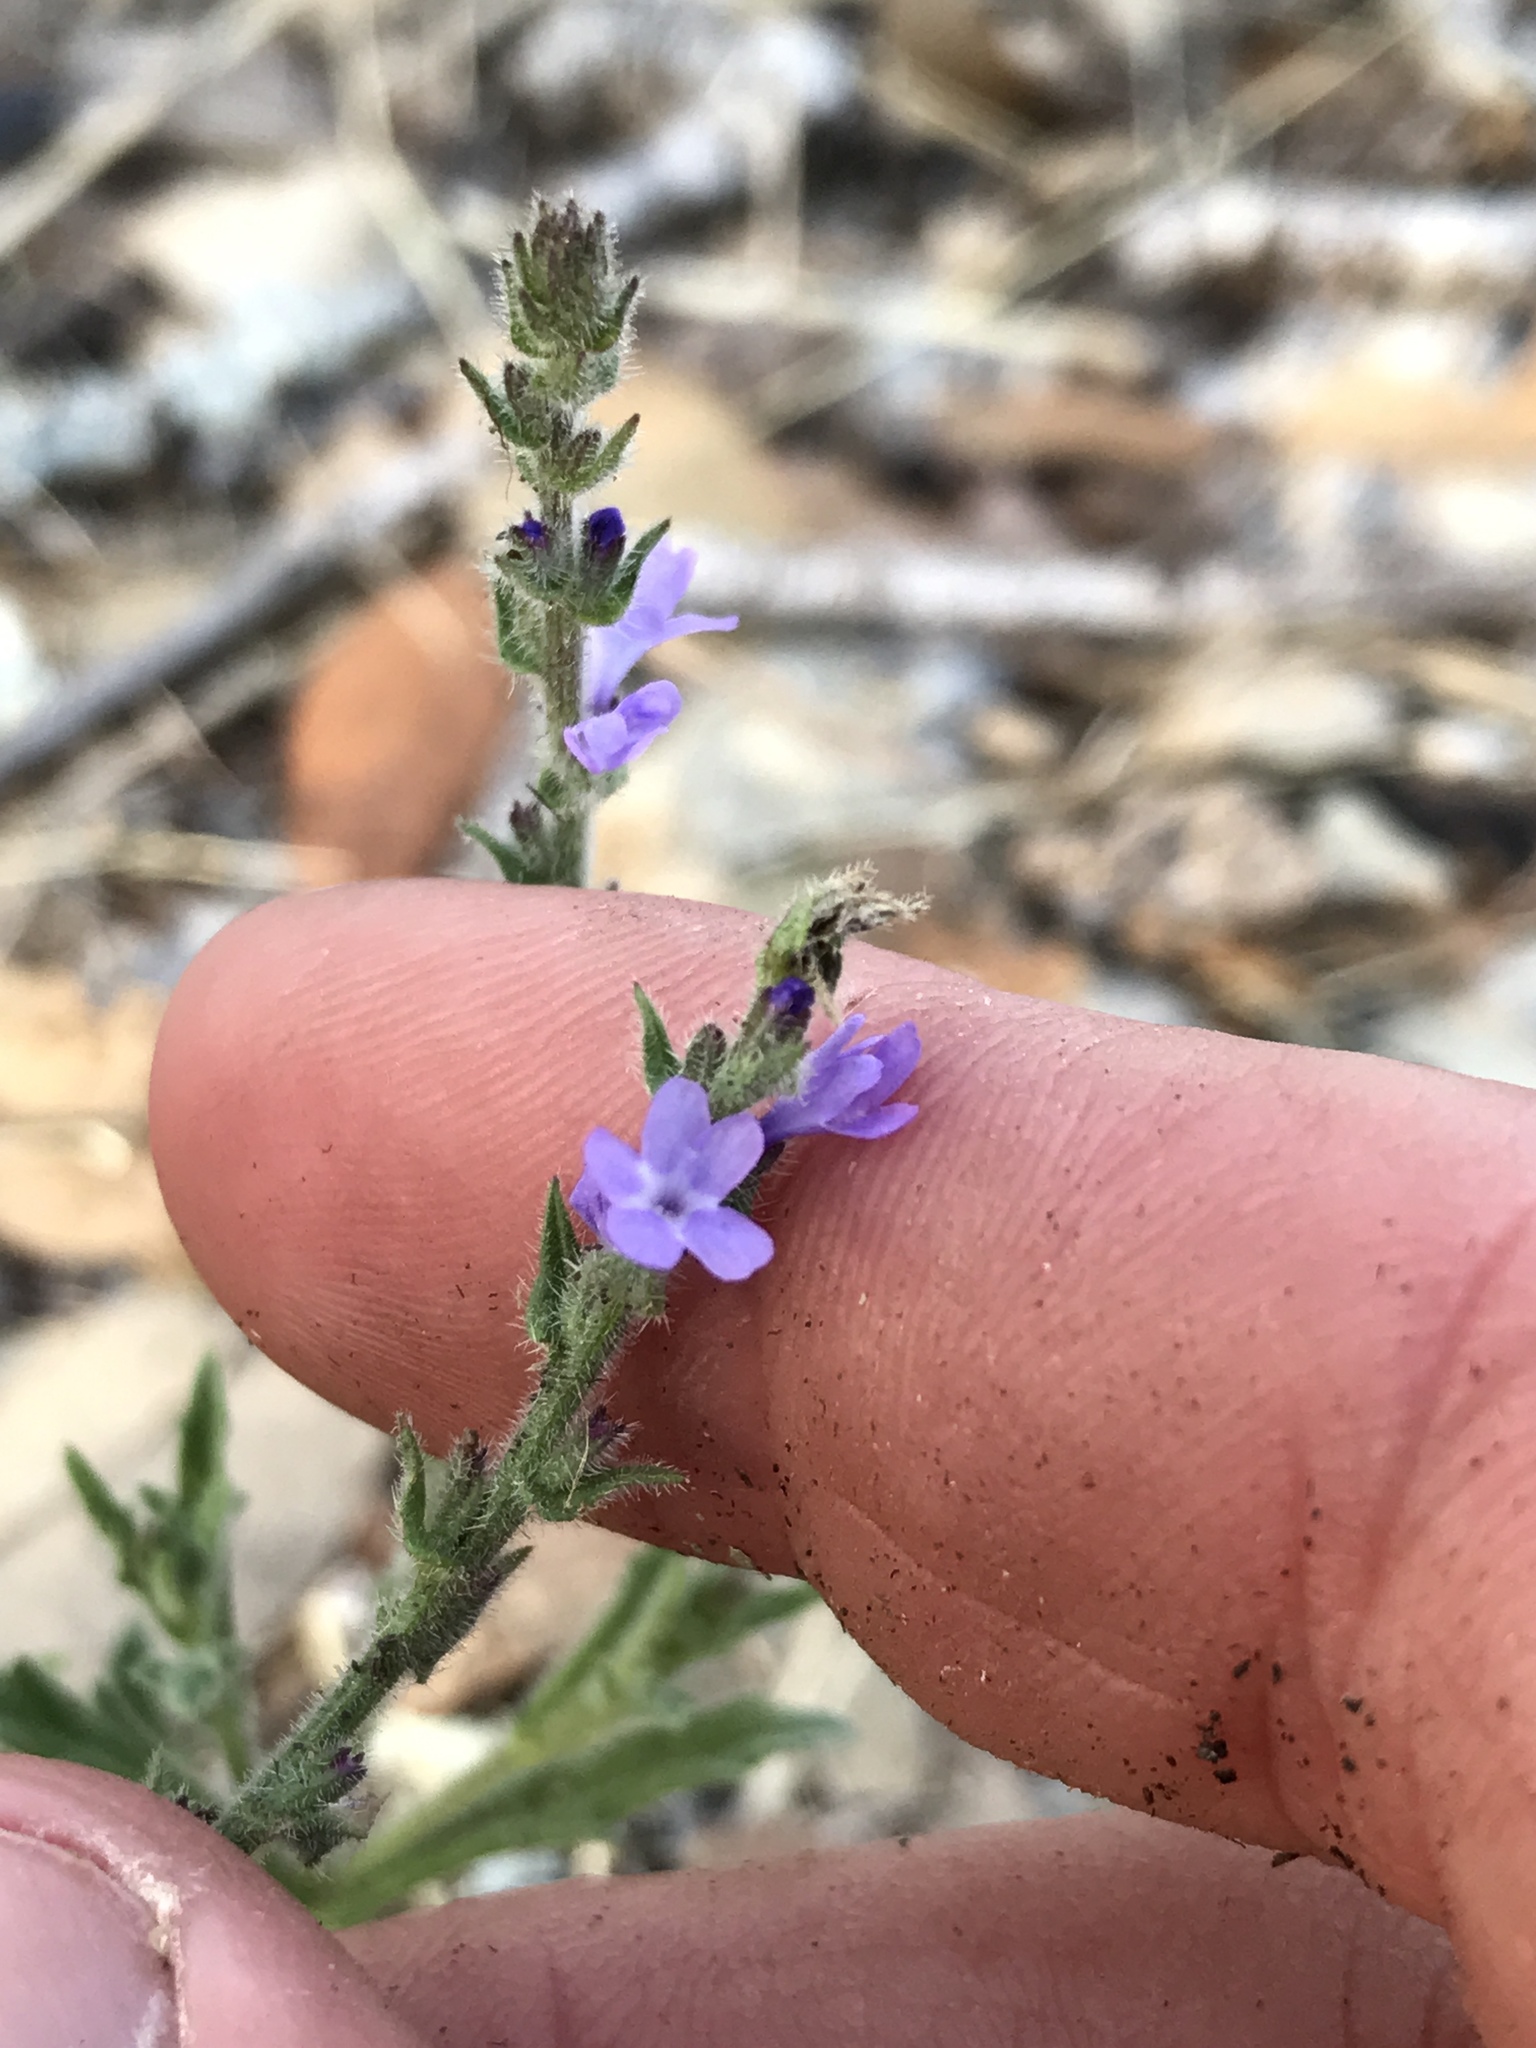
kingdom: Plantae
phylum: Tracheophyta
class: Magnoliopsida
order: Lamiales
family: Verbenaceae
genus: Verbena
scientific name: Verbena canescens
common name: Gray vervain
